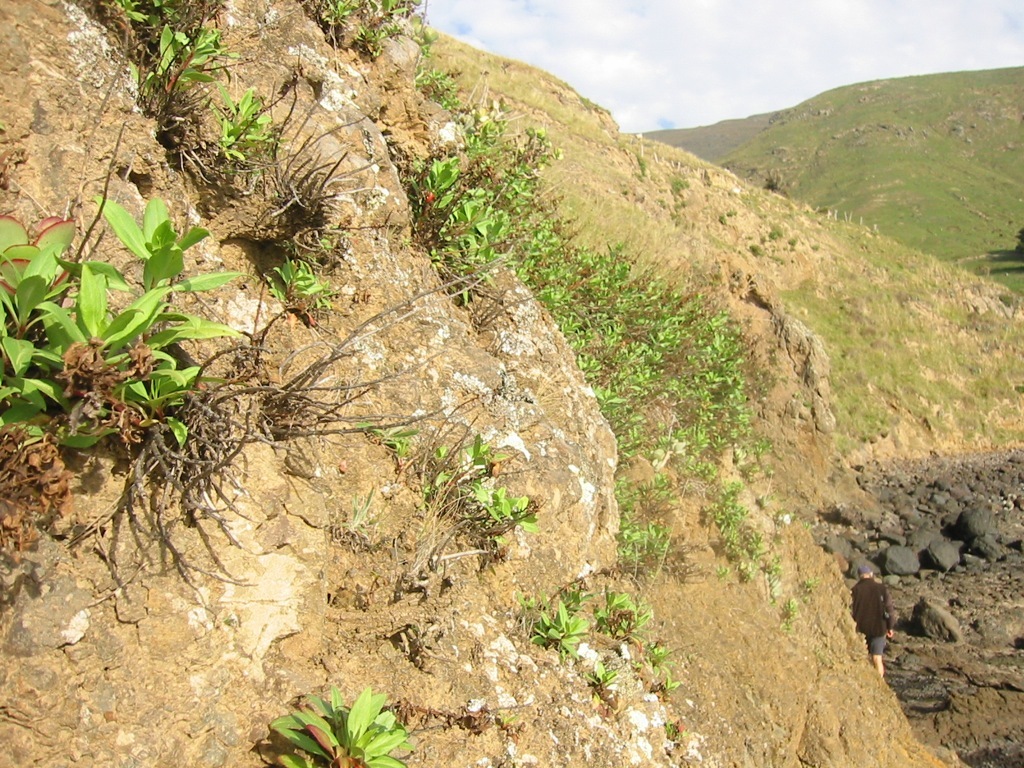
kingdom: Plantae
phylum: Tracheophyta
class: Magnoliopsida
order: Dipsacales
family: Caprifoliaceae
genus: Centranthus
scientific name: Centranthus ruber
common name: Red valerian
